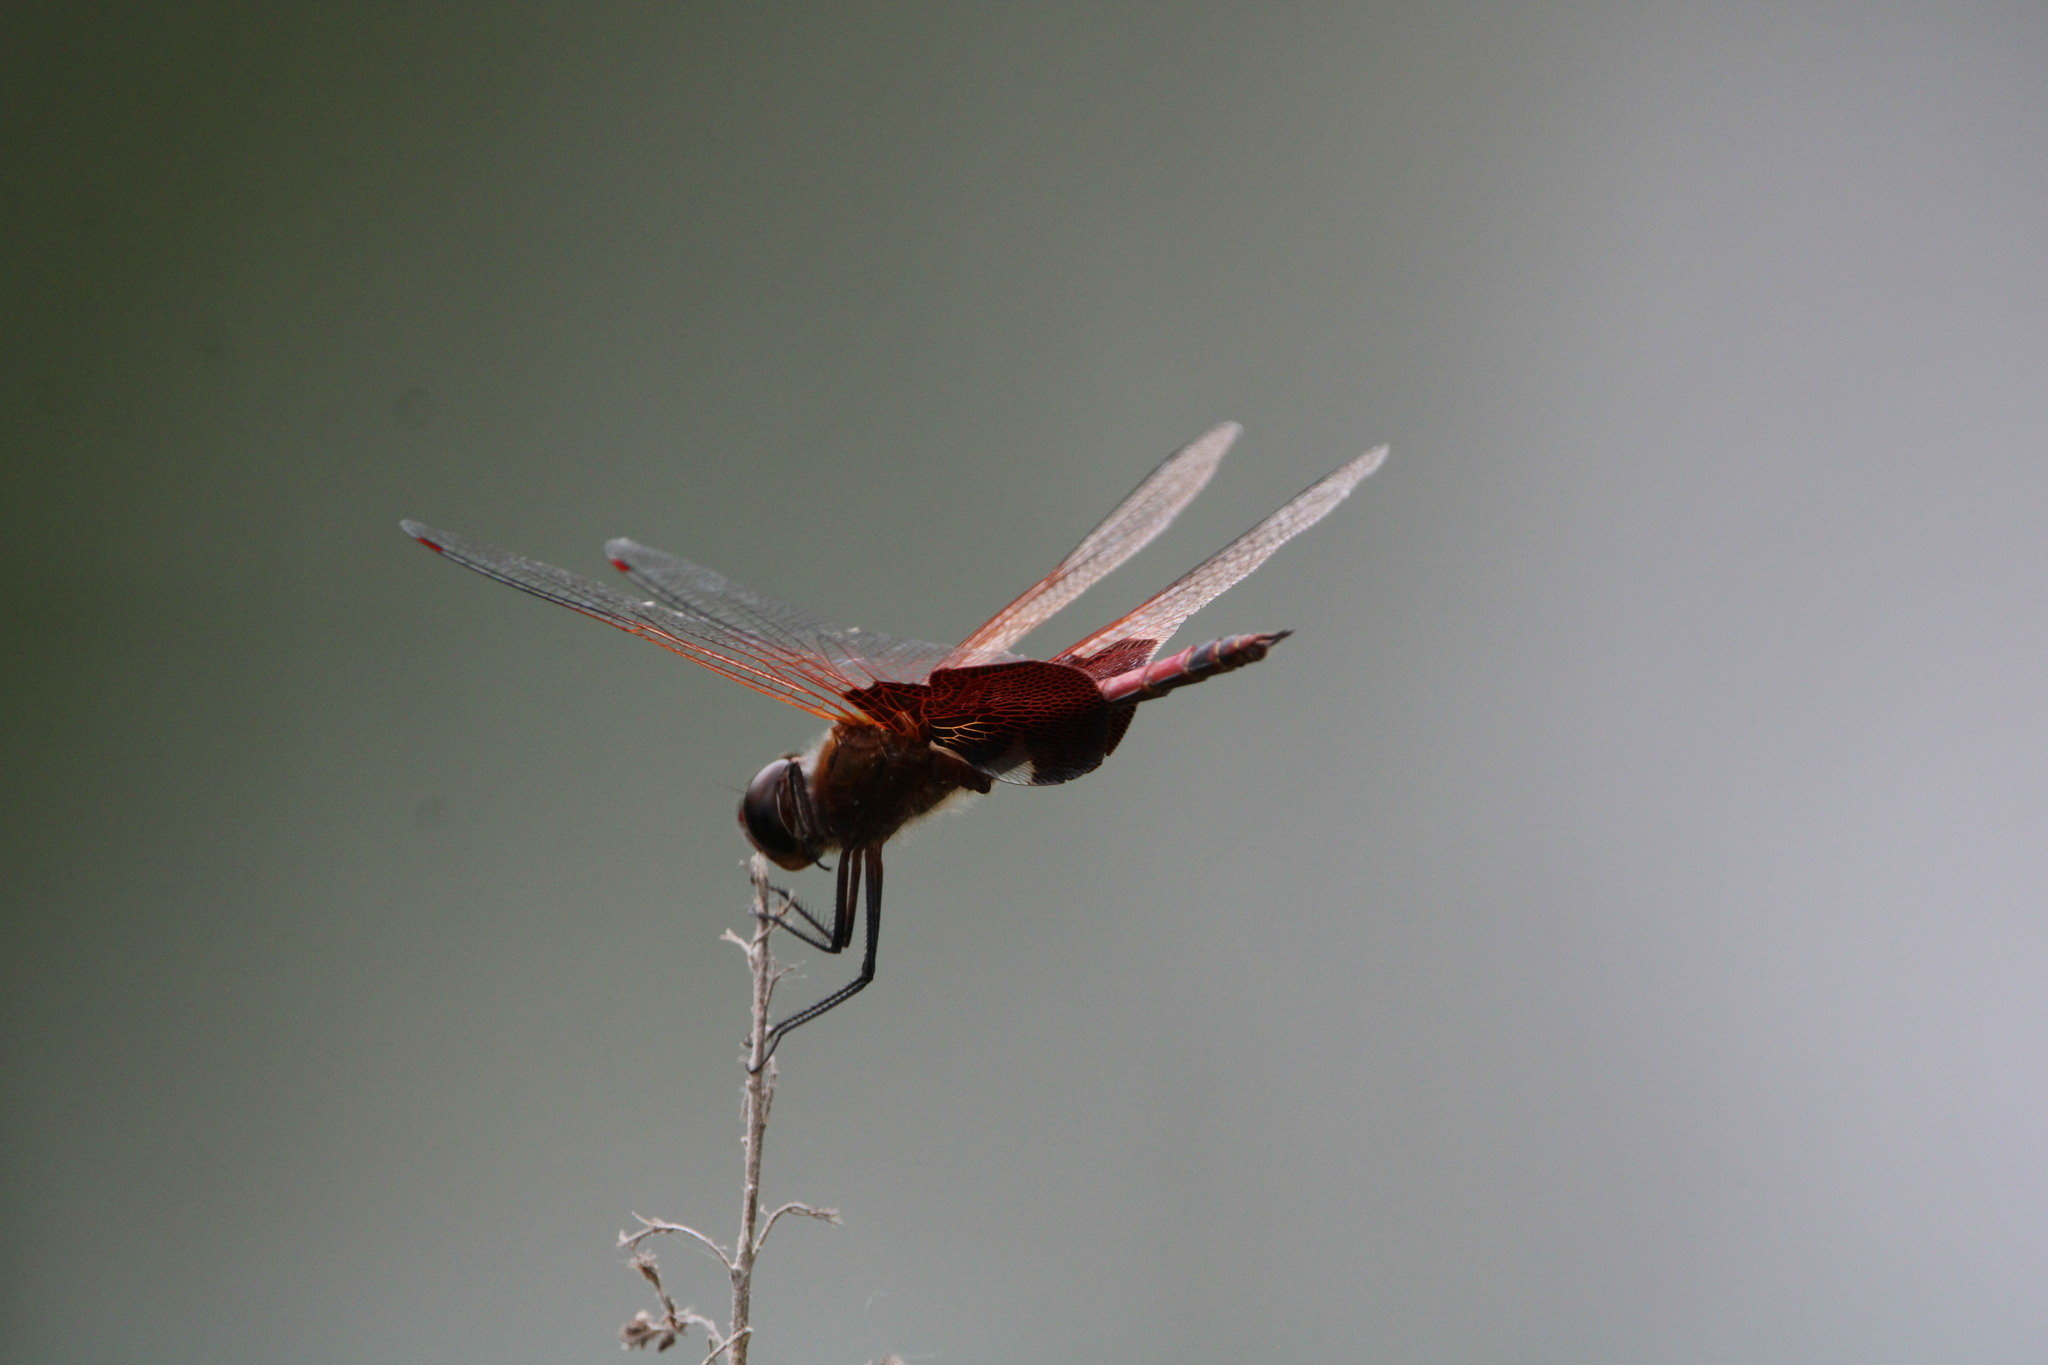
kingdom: Animalia
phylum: Arthropoda
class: Insecta
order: Odonata
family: Libellulidae
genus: Tramea
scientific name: Tramea carolina
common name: Carolina saddlebags
